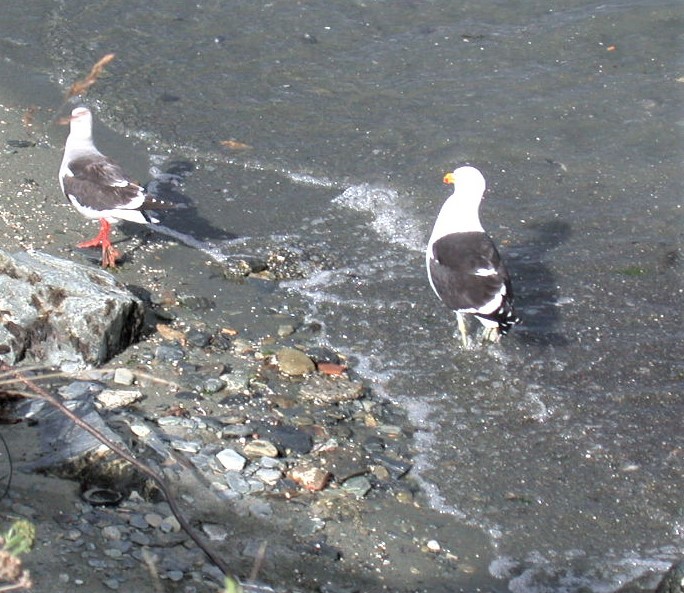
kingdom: Animalia
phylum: Chordata
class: Aves
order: Charadriiformes
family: Laridae
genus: Larus
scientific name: Larus dominicanus
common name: Kelp gull
